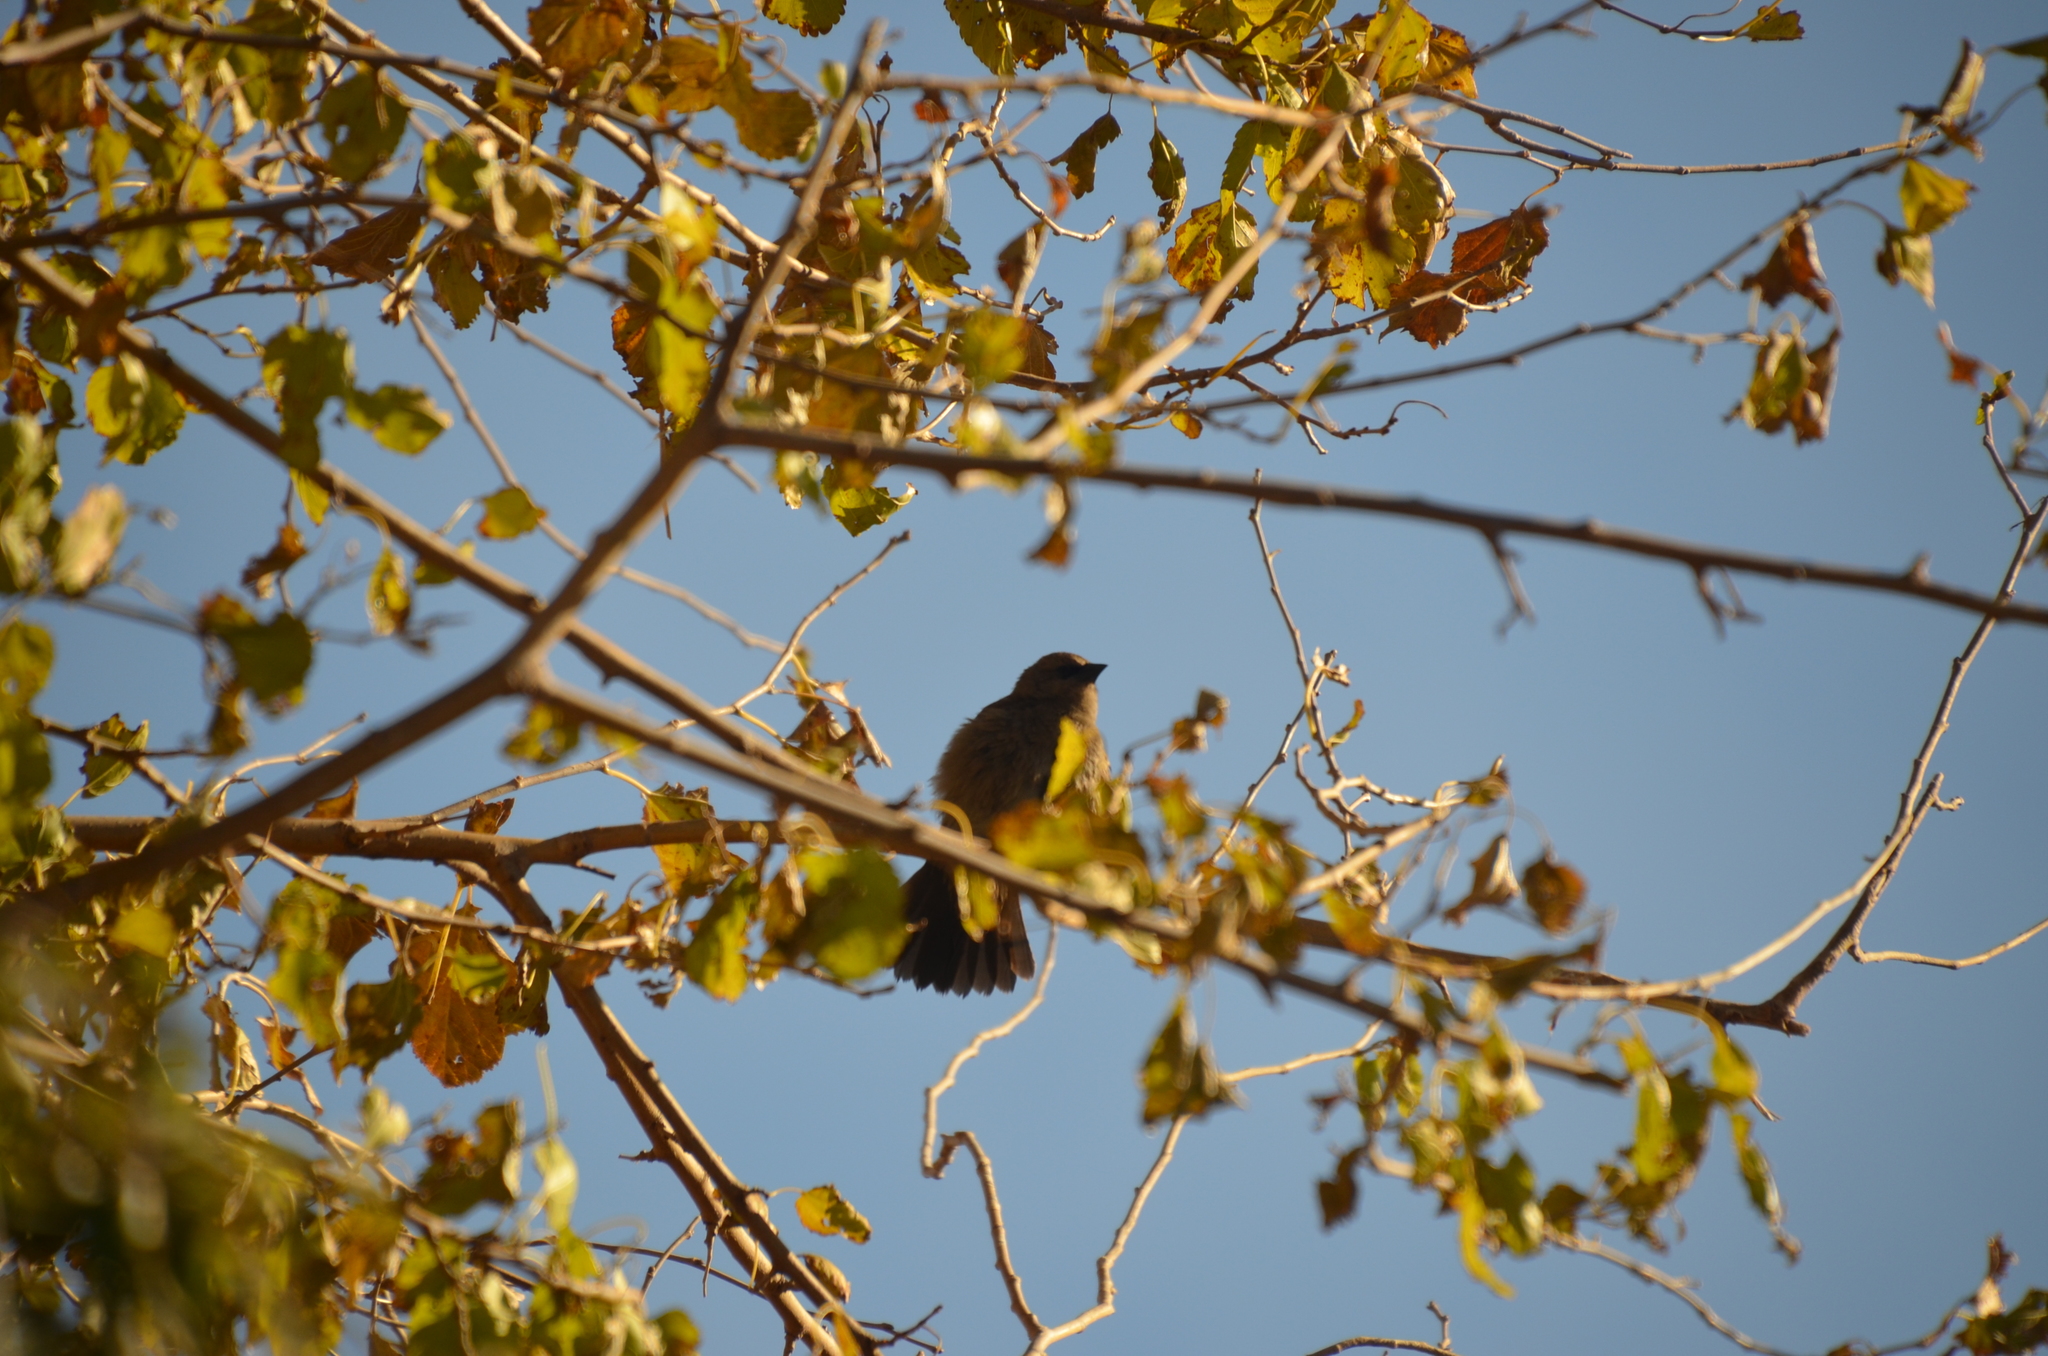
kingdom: Animalia
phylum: Chordata
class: Aves
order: Passeriformes
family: Icteridae
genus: Agelaioides
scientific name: Agelaioides badius
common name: Baywing
